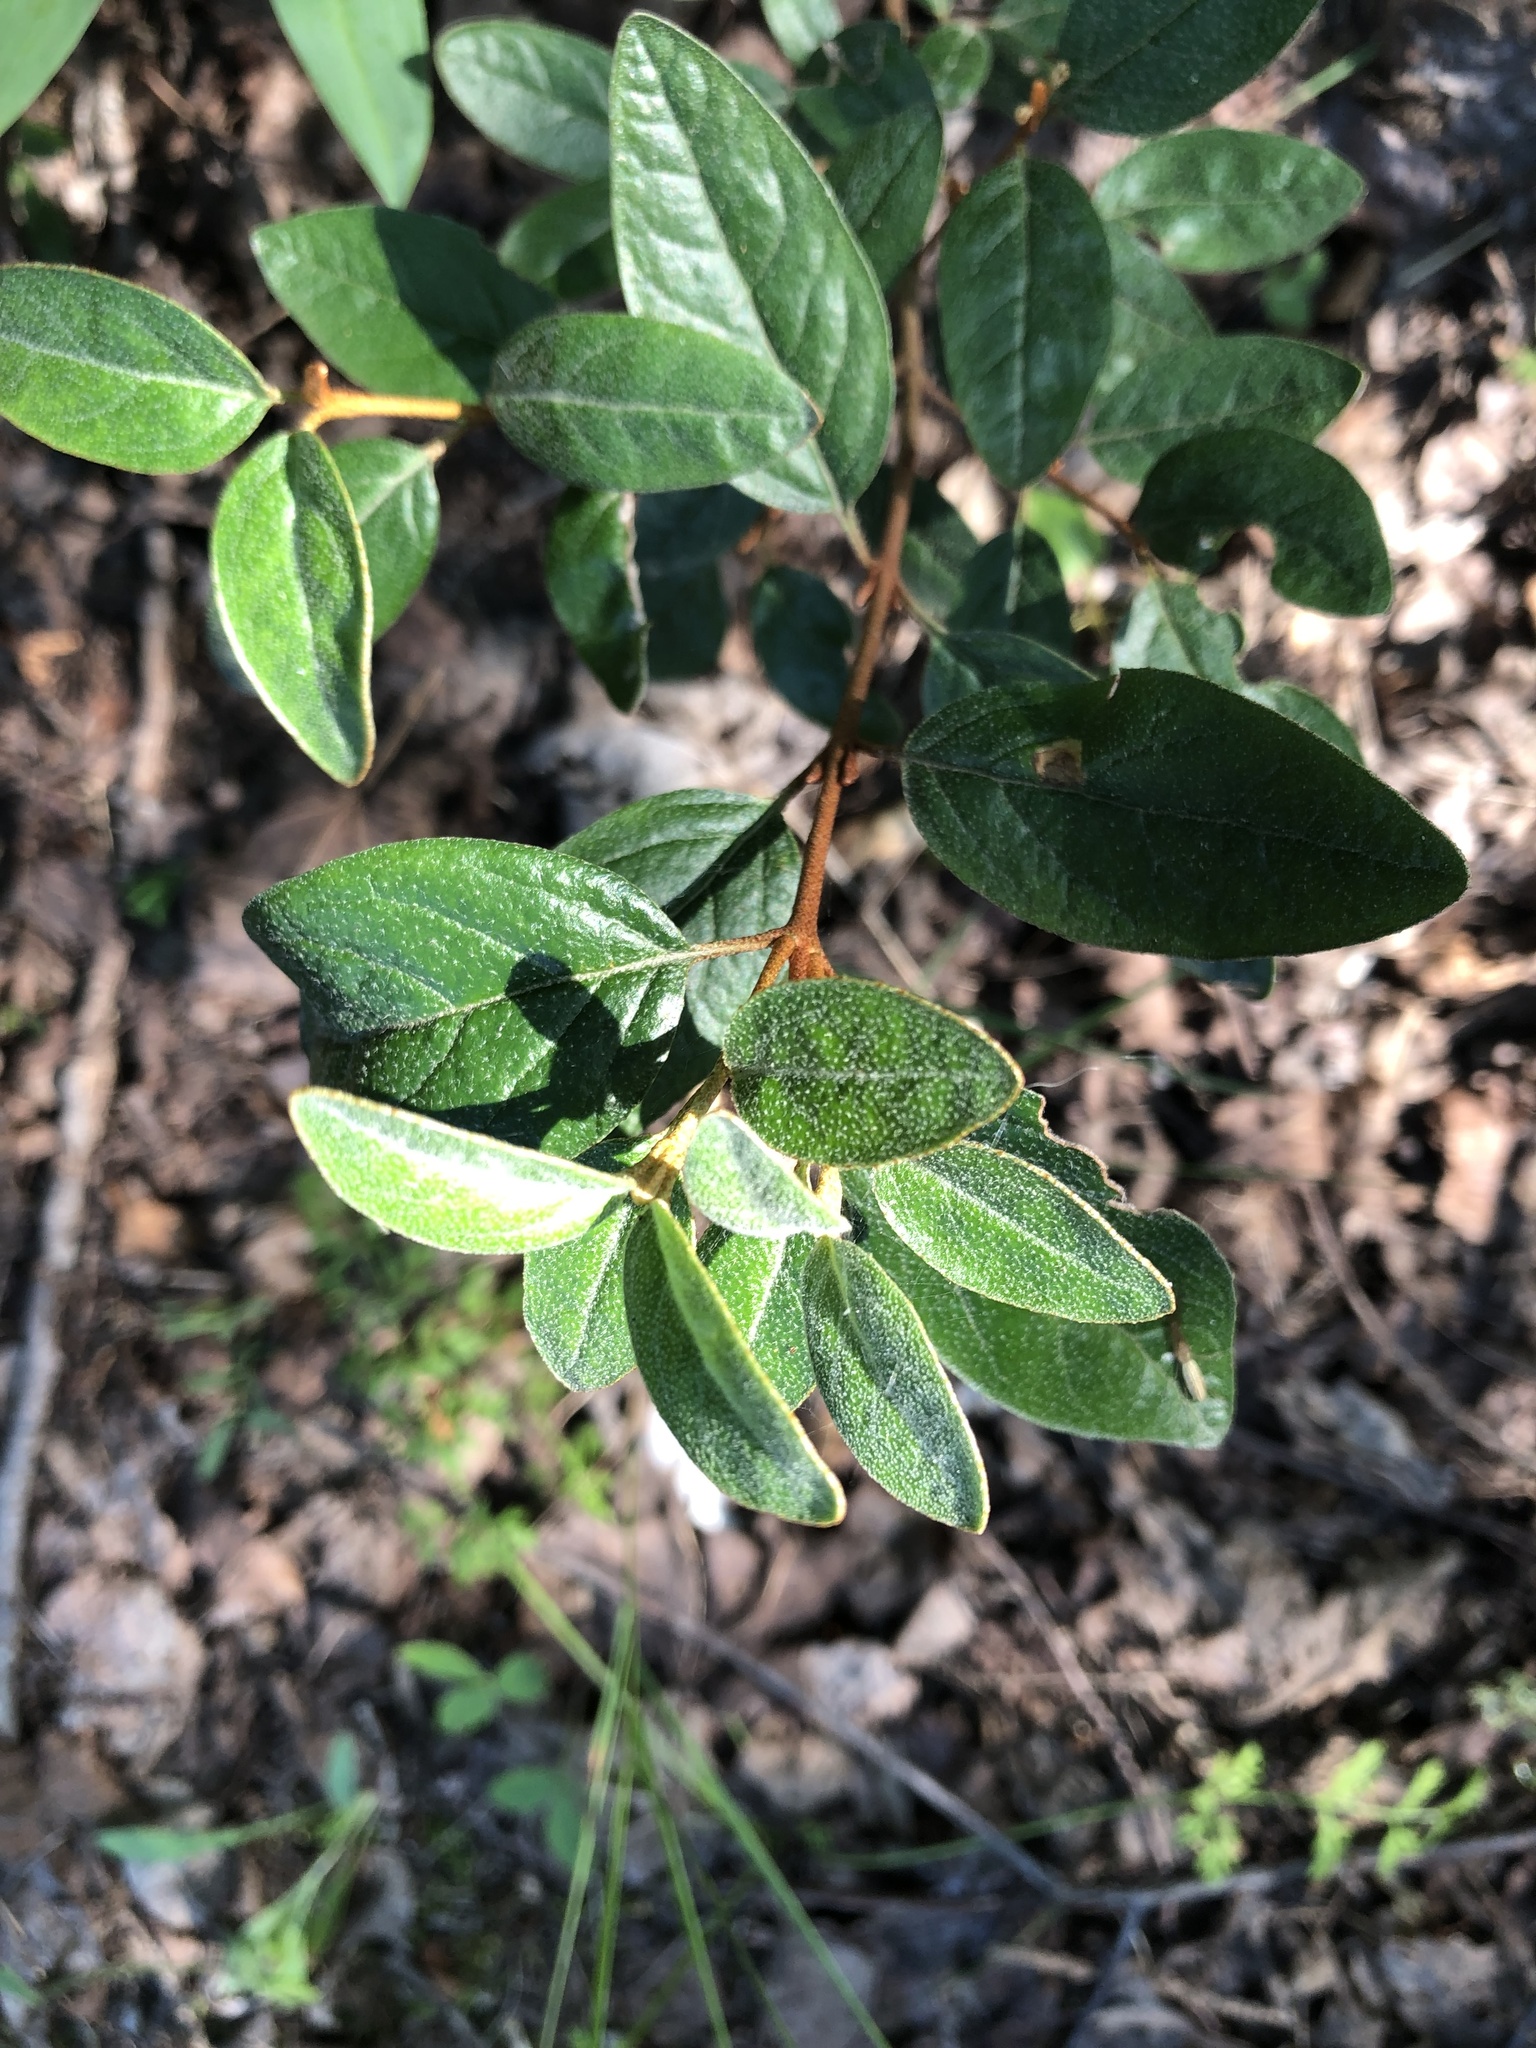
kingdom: Plantae
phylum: Tracheophyta
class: Magnoliopsida
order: Rosales
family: Elaeagnaceae
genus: Shepherdia
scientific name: Shepherdia canadensis
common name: Soapberry
